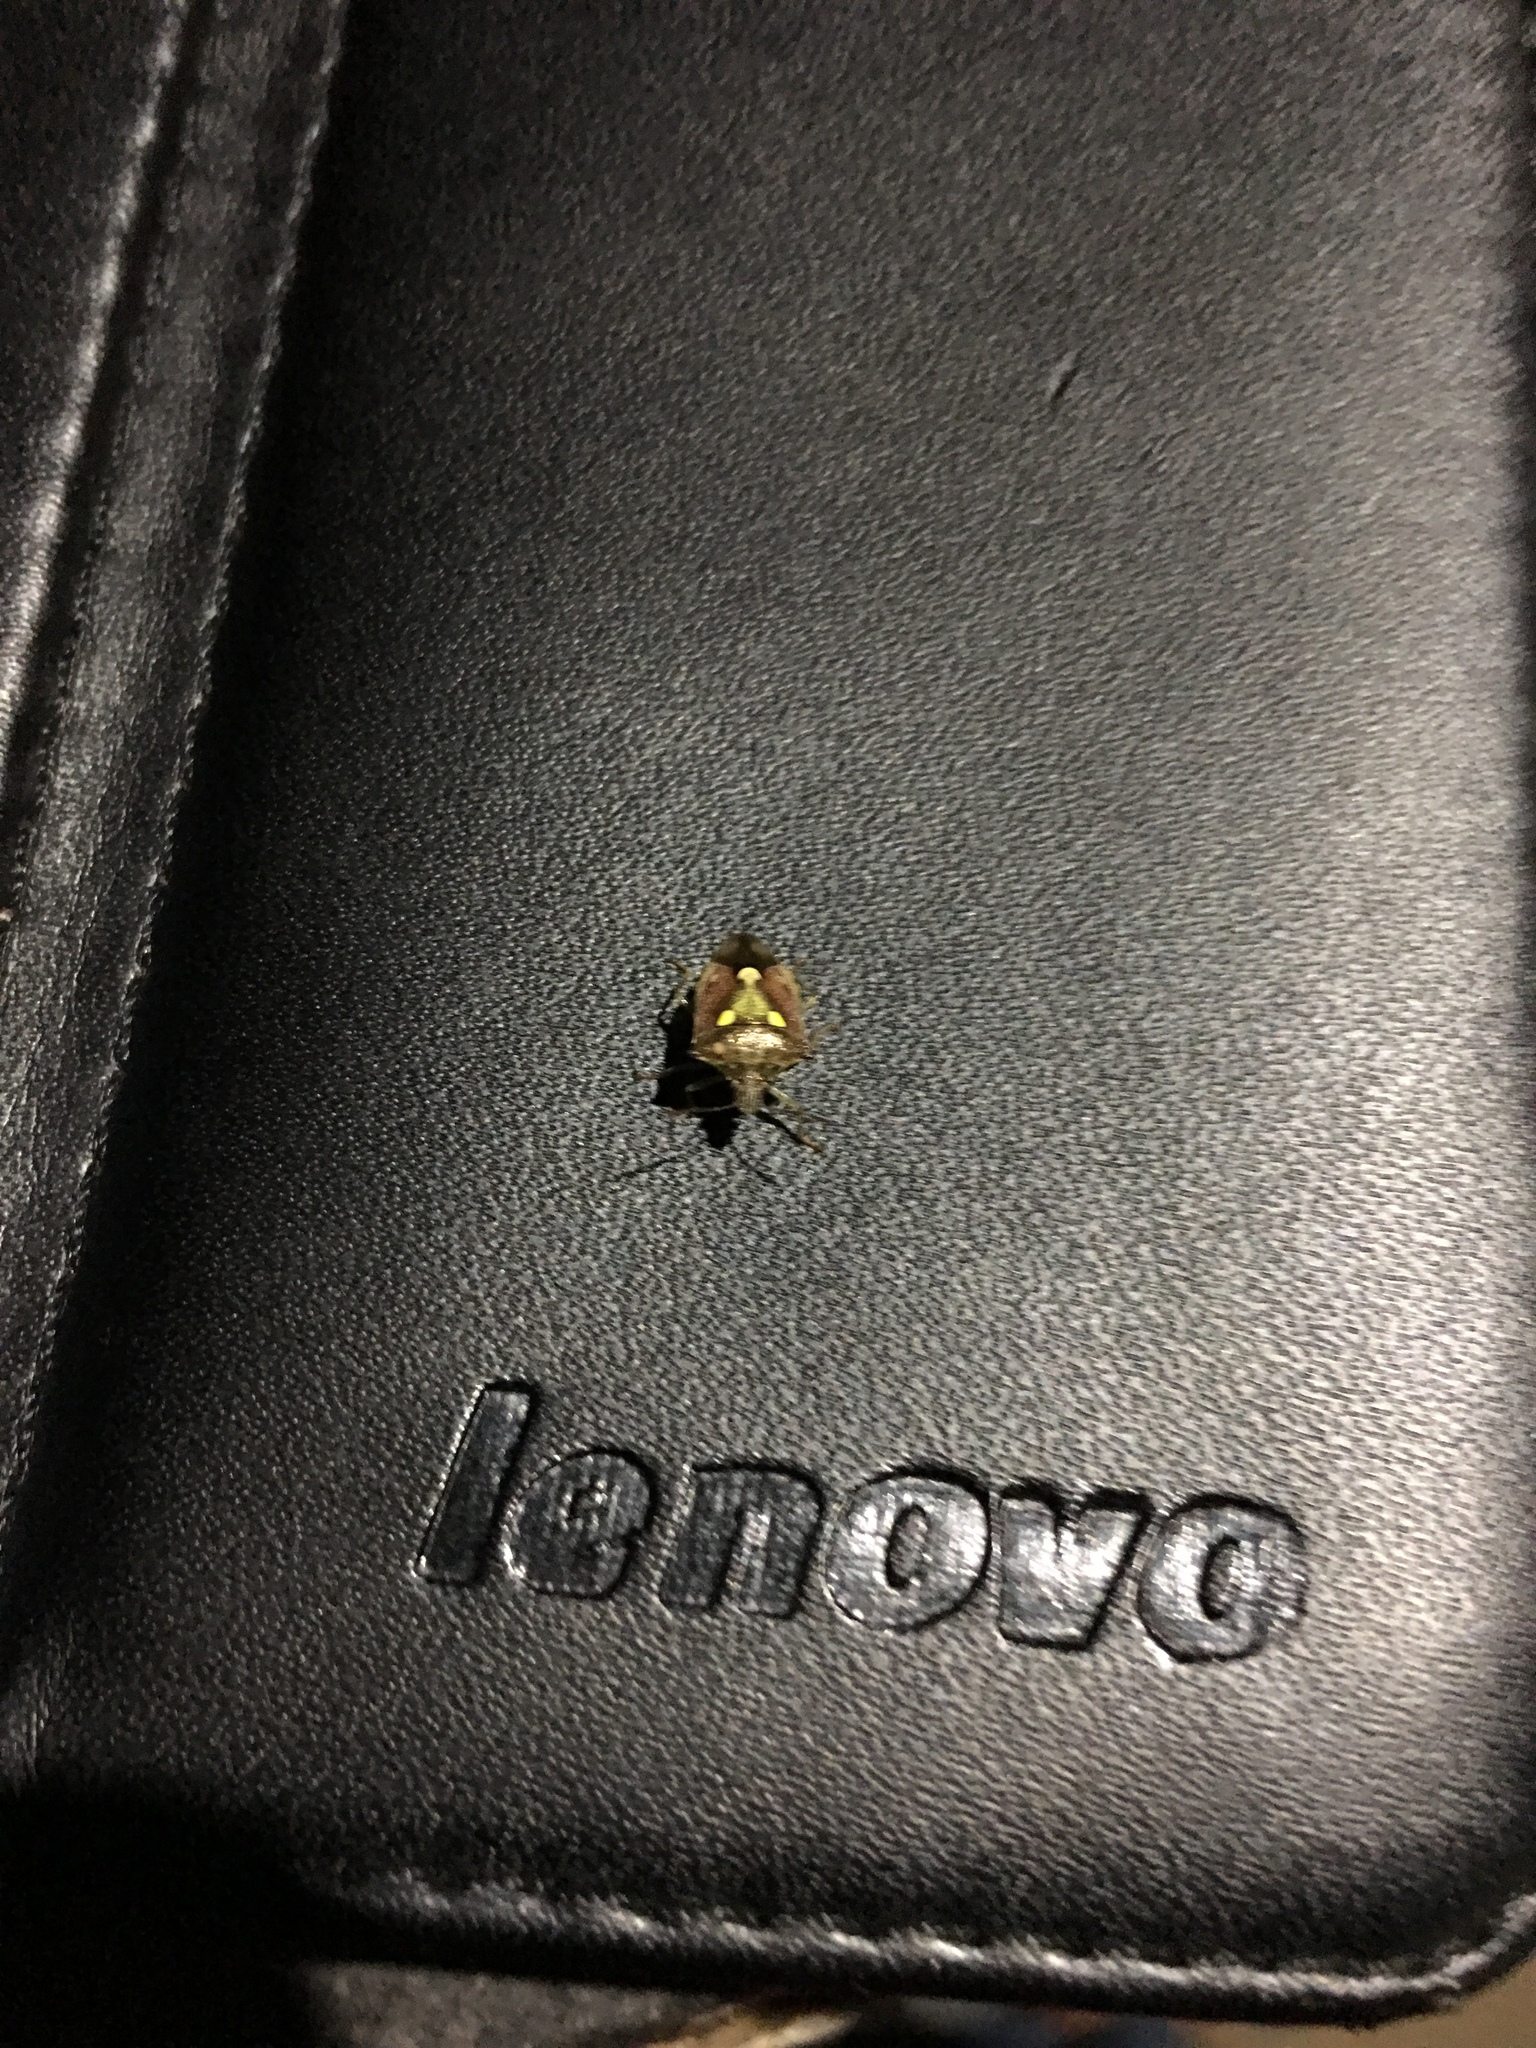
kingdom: Animalia
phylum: Arthropoda
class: Insecta
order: Hemiptera
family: Pentatomidae
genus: Carbula
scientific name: Carbula scutellata
